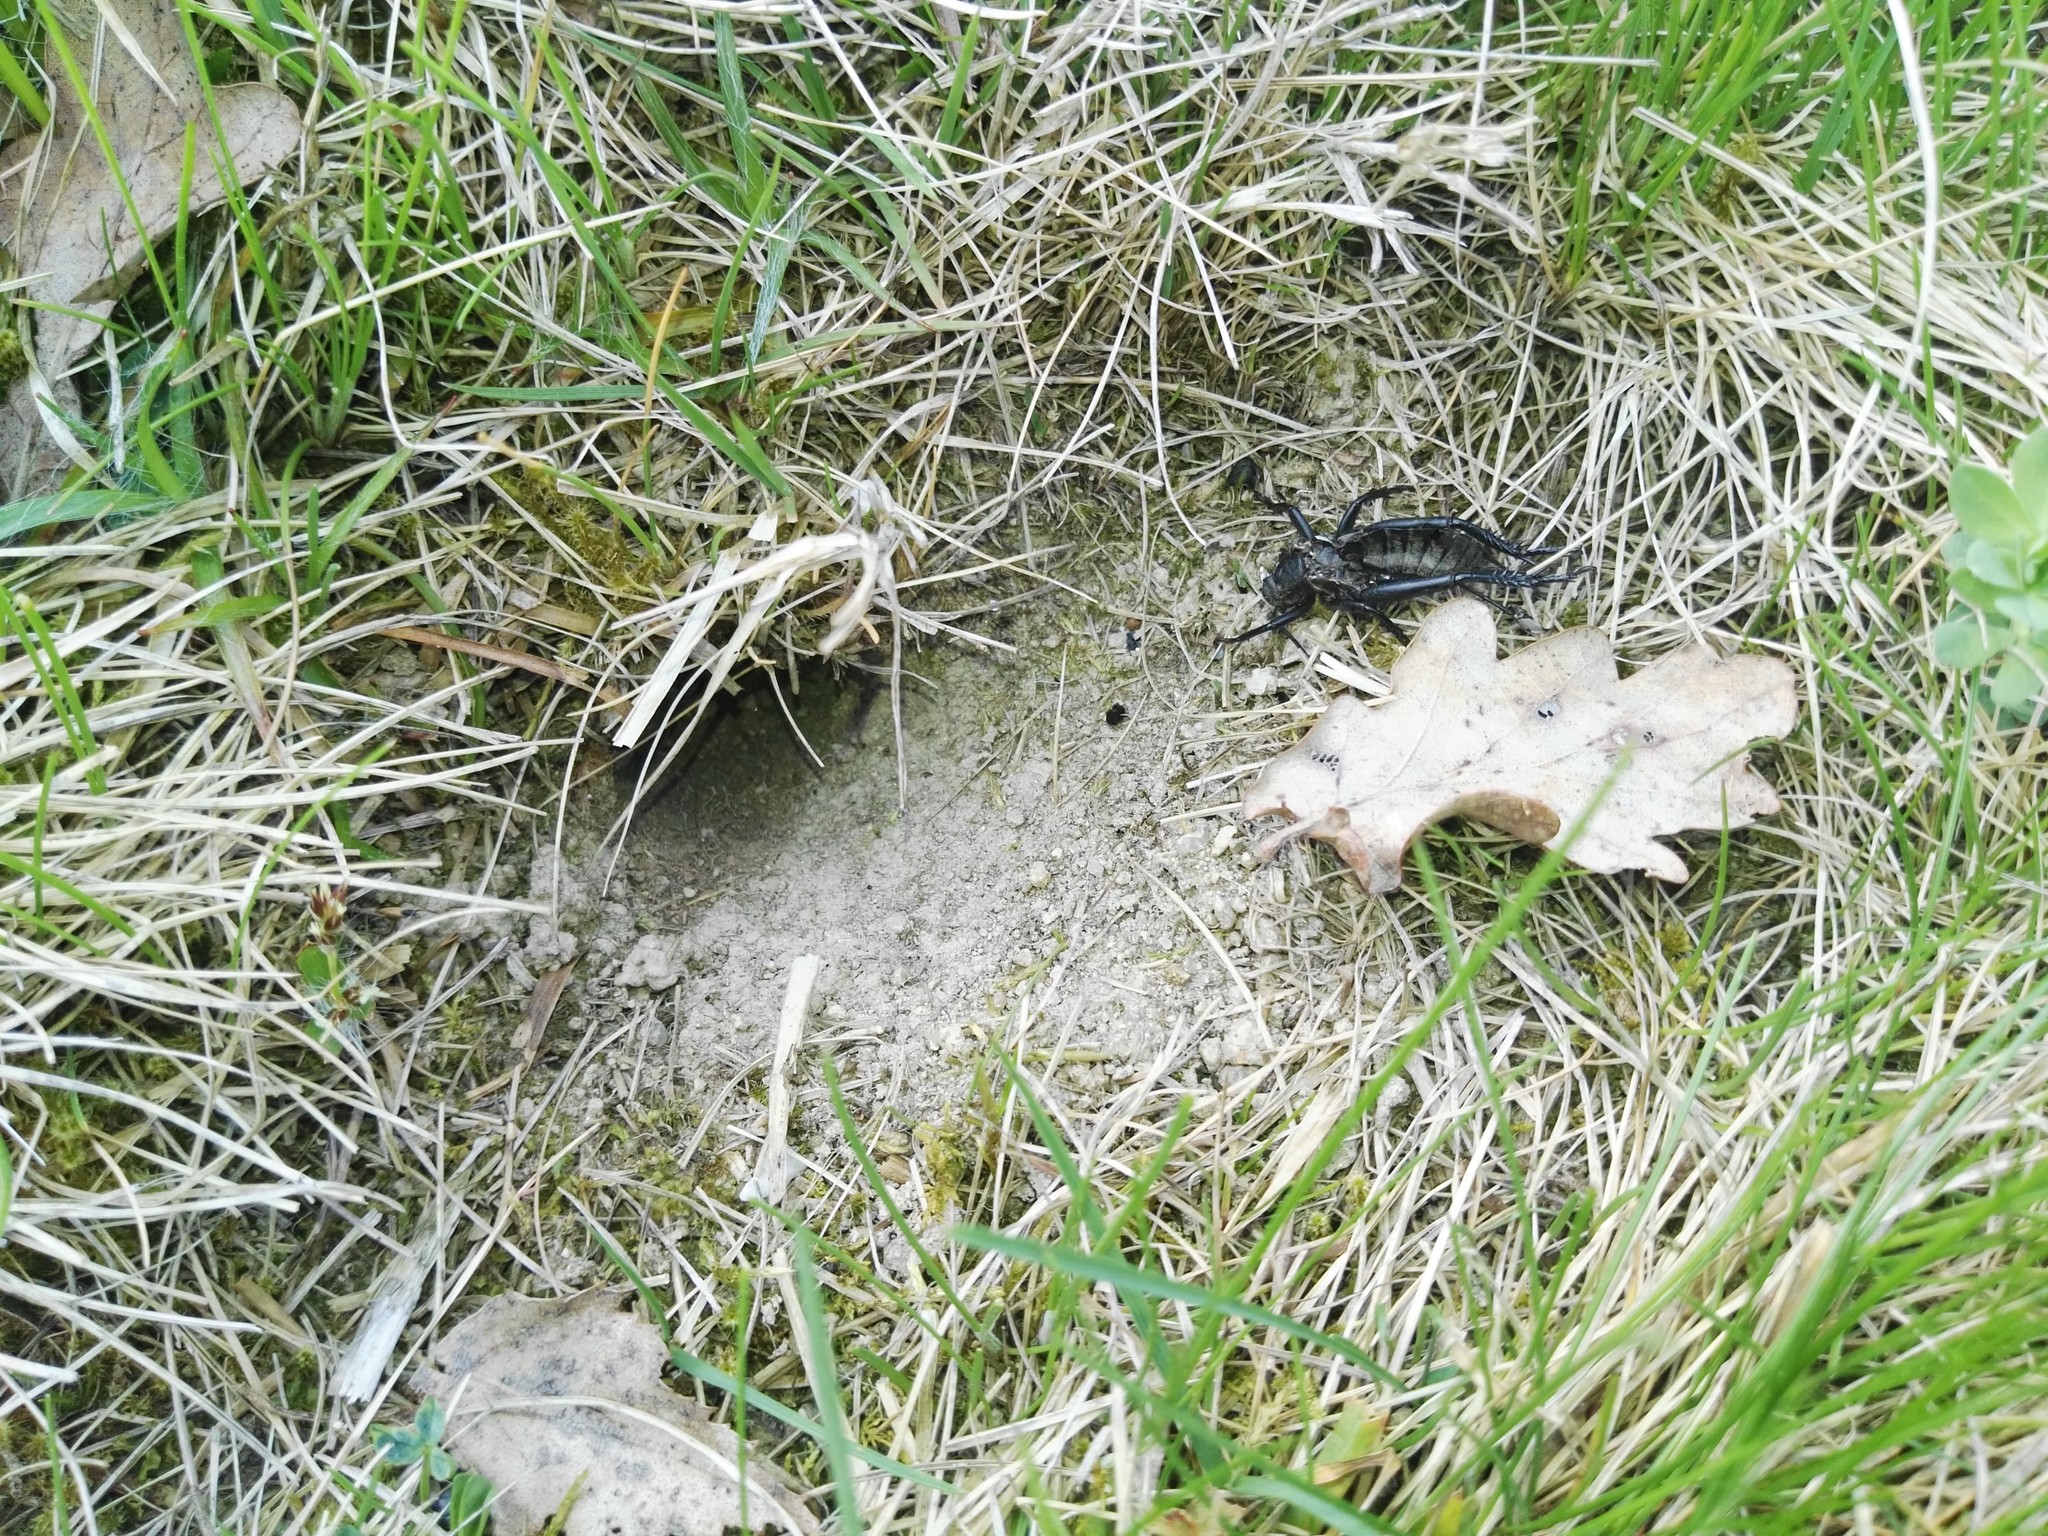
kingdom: Animalia
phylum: Arthropoda
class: Insecta
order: Orthoptera
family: Gryllidae
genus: Gryllus
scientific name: Gryllus campestris
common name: Field cricket
